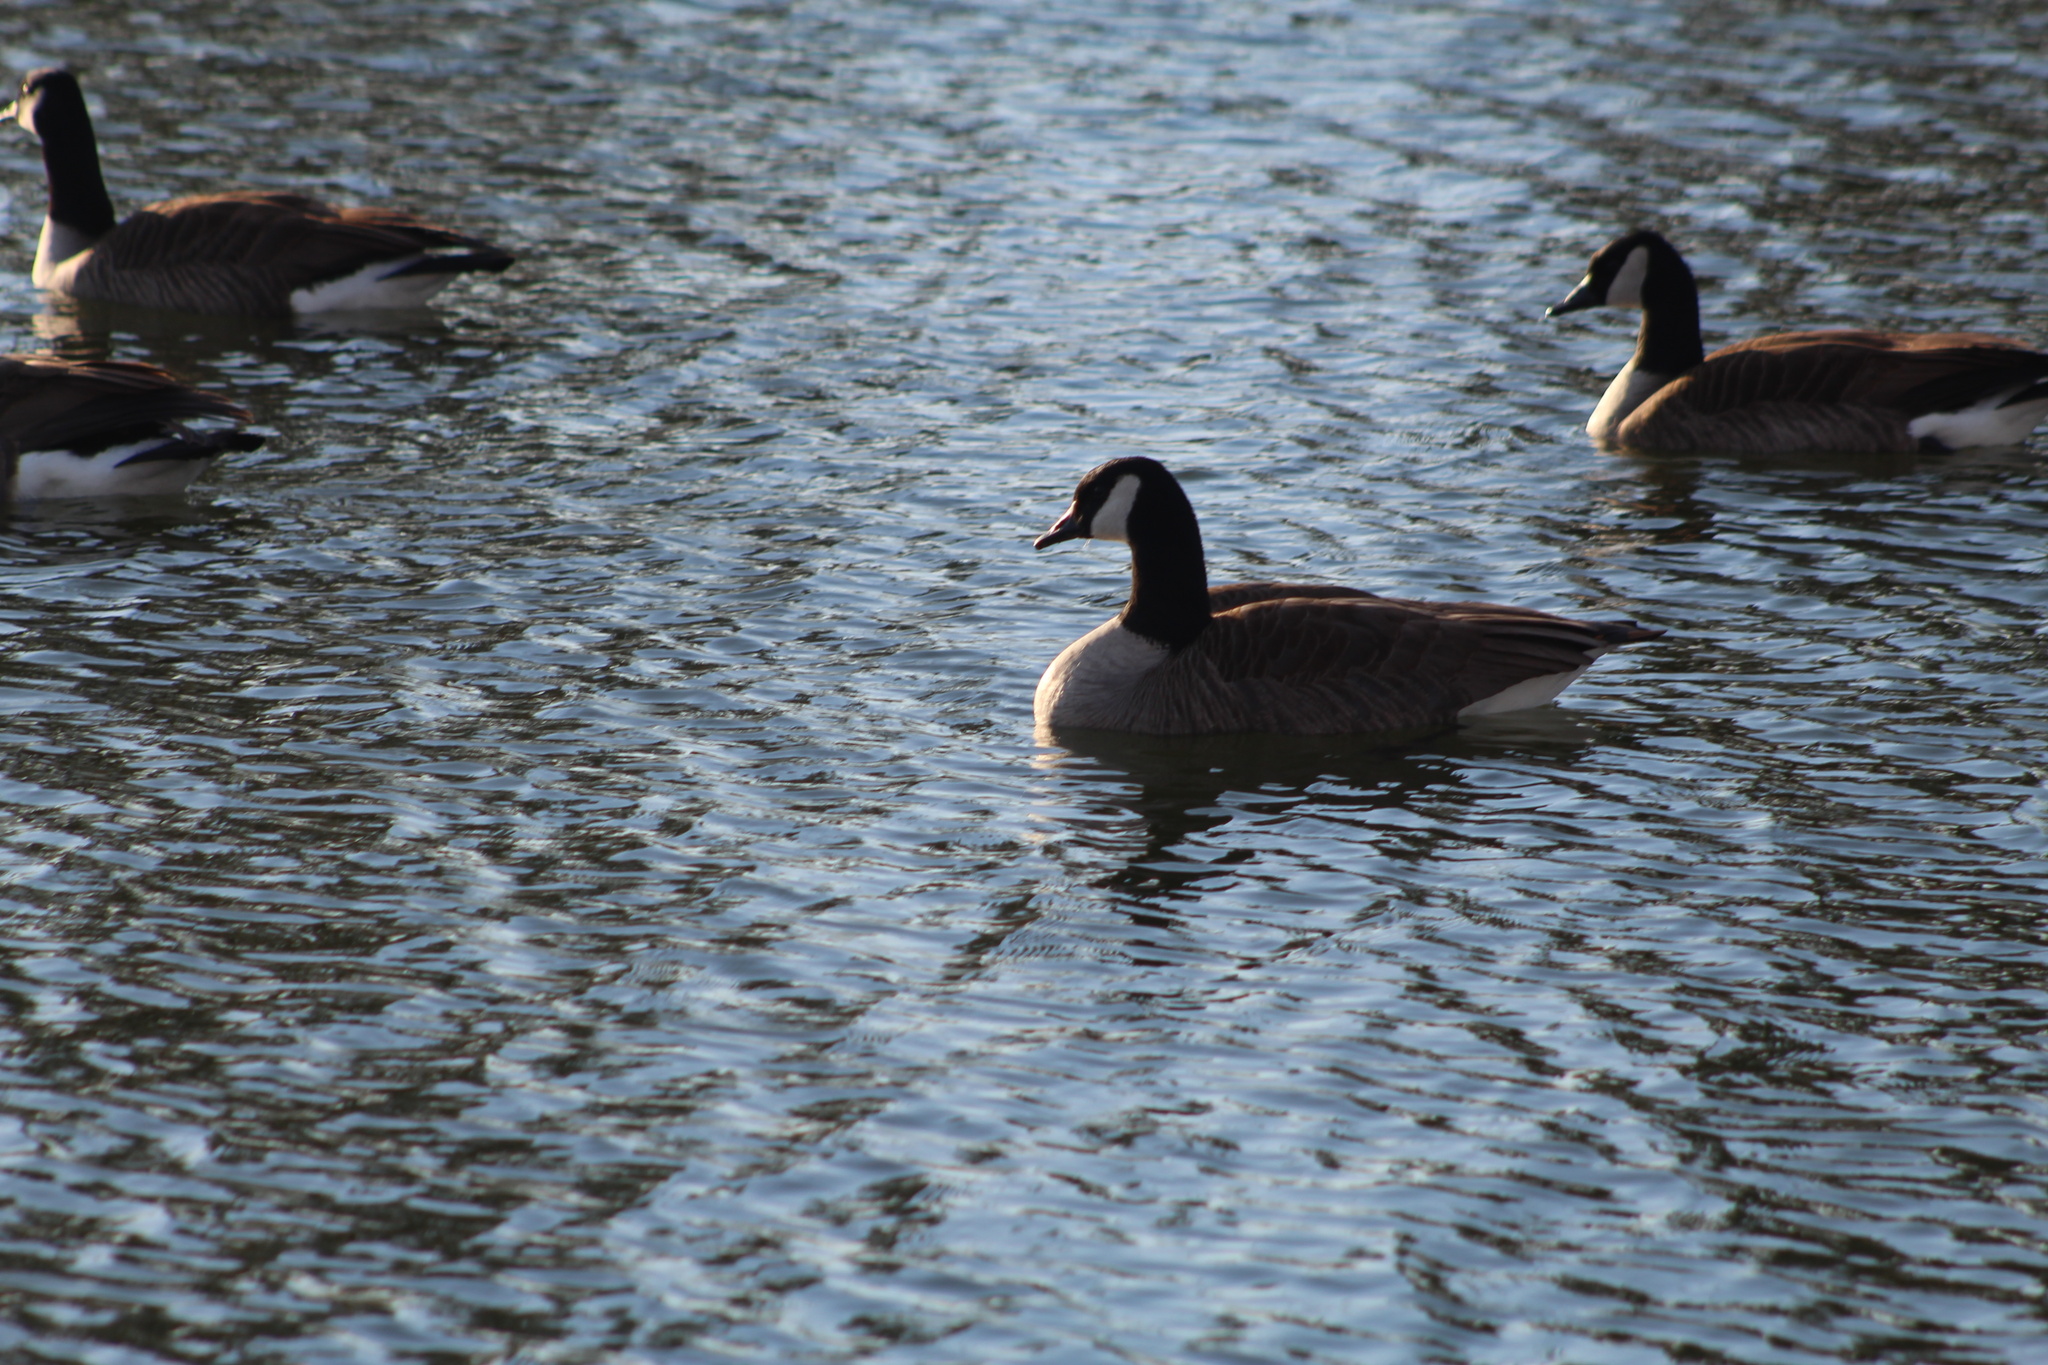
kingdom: Animalia
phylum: Chordata
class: Aves
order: Anseriformes
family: Anatidae
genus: Branta
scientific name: Branta canadensis
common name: Canada goose
